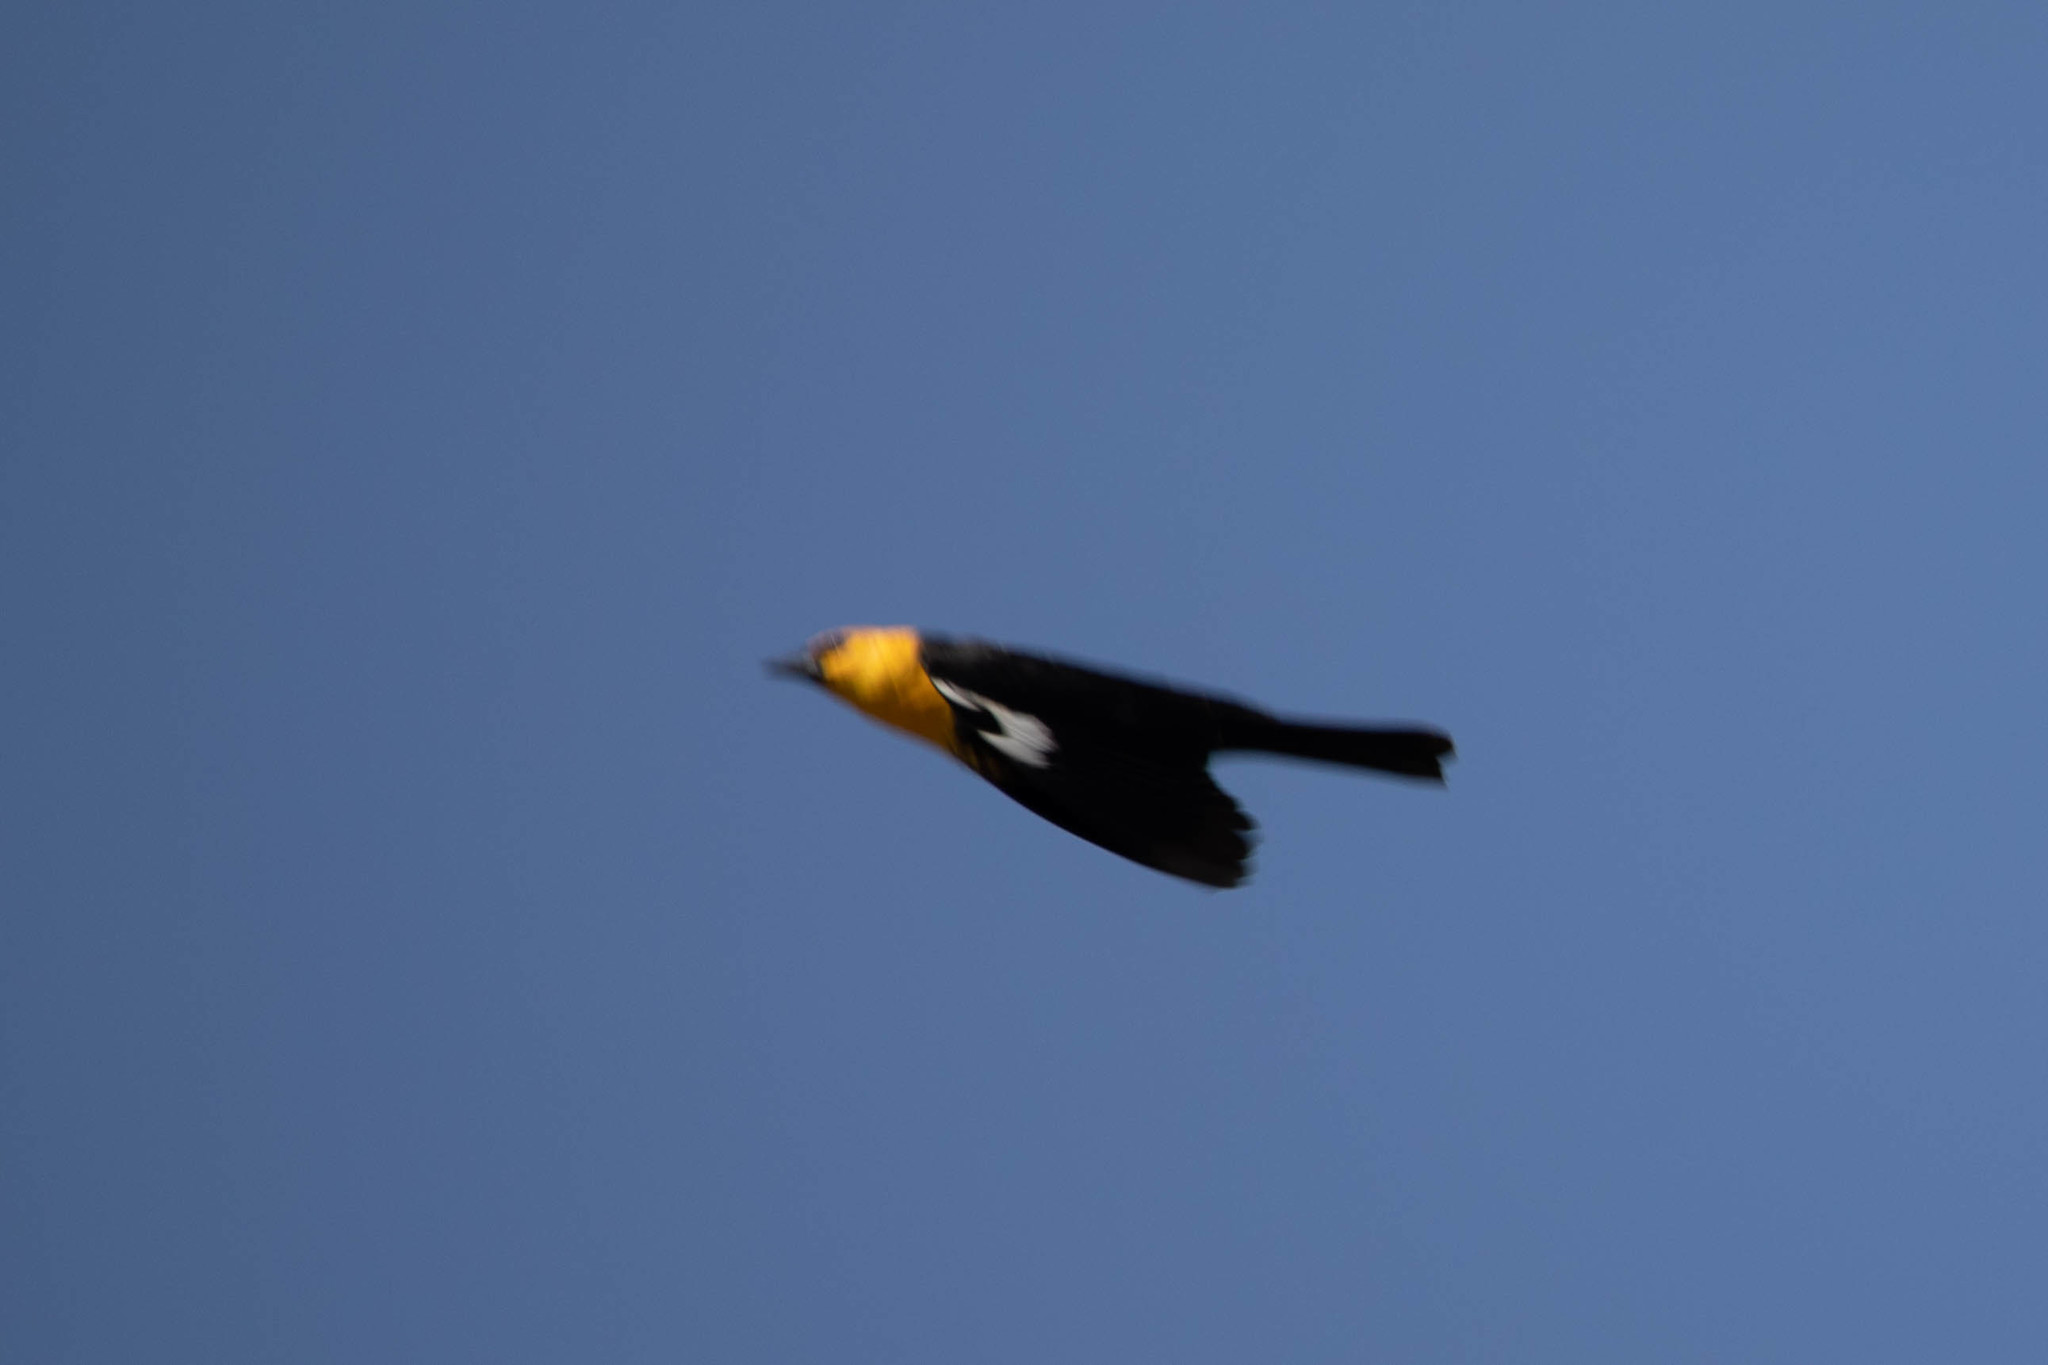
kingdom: Animalia
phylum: Chordata
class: Aves
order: Passeriformes
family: Icteridae
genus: Xanthocephalus
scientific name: Xanthocephalus xanthocephalus
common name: Yellow-headed blackbird
